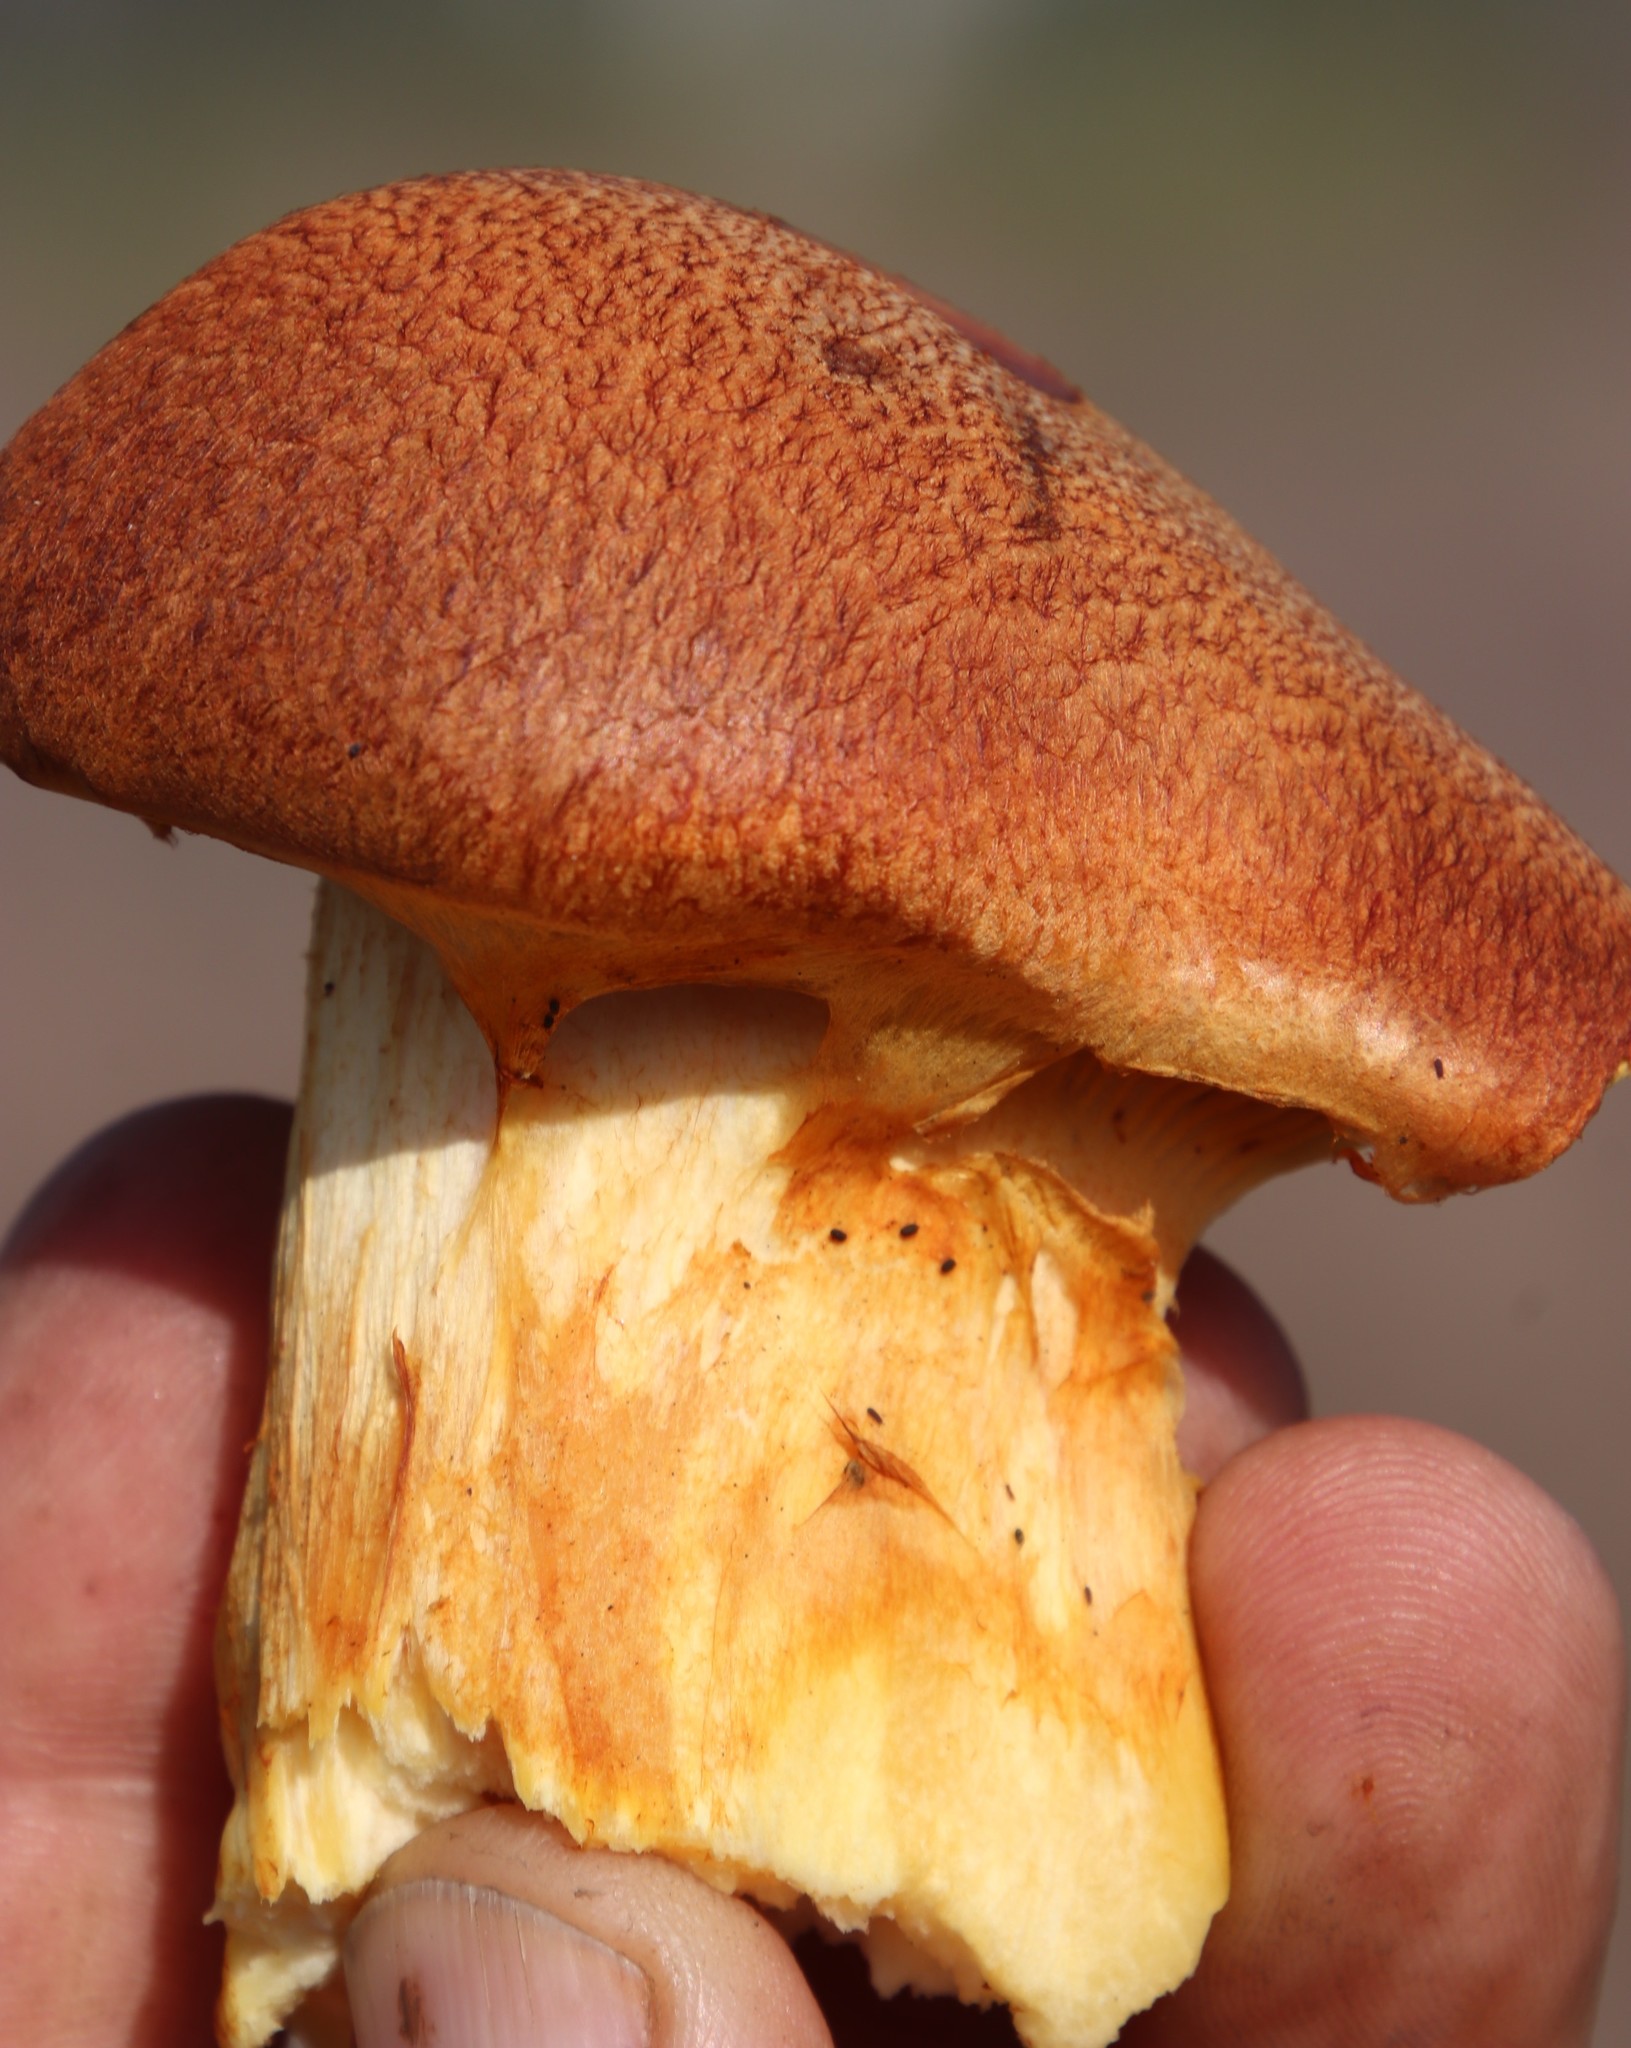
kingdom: Fungi
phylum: Basidiomycota
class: Agaricomycetes
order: Agaricales
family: Hymenogastraceae
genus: Gymnopilus
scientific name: Gymnopilus junonius
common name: Spectacular rustgill
